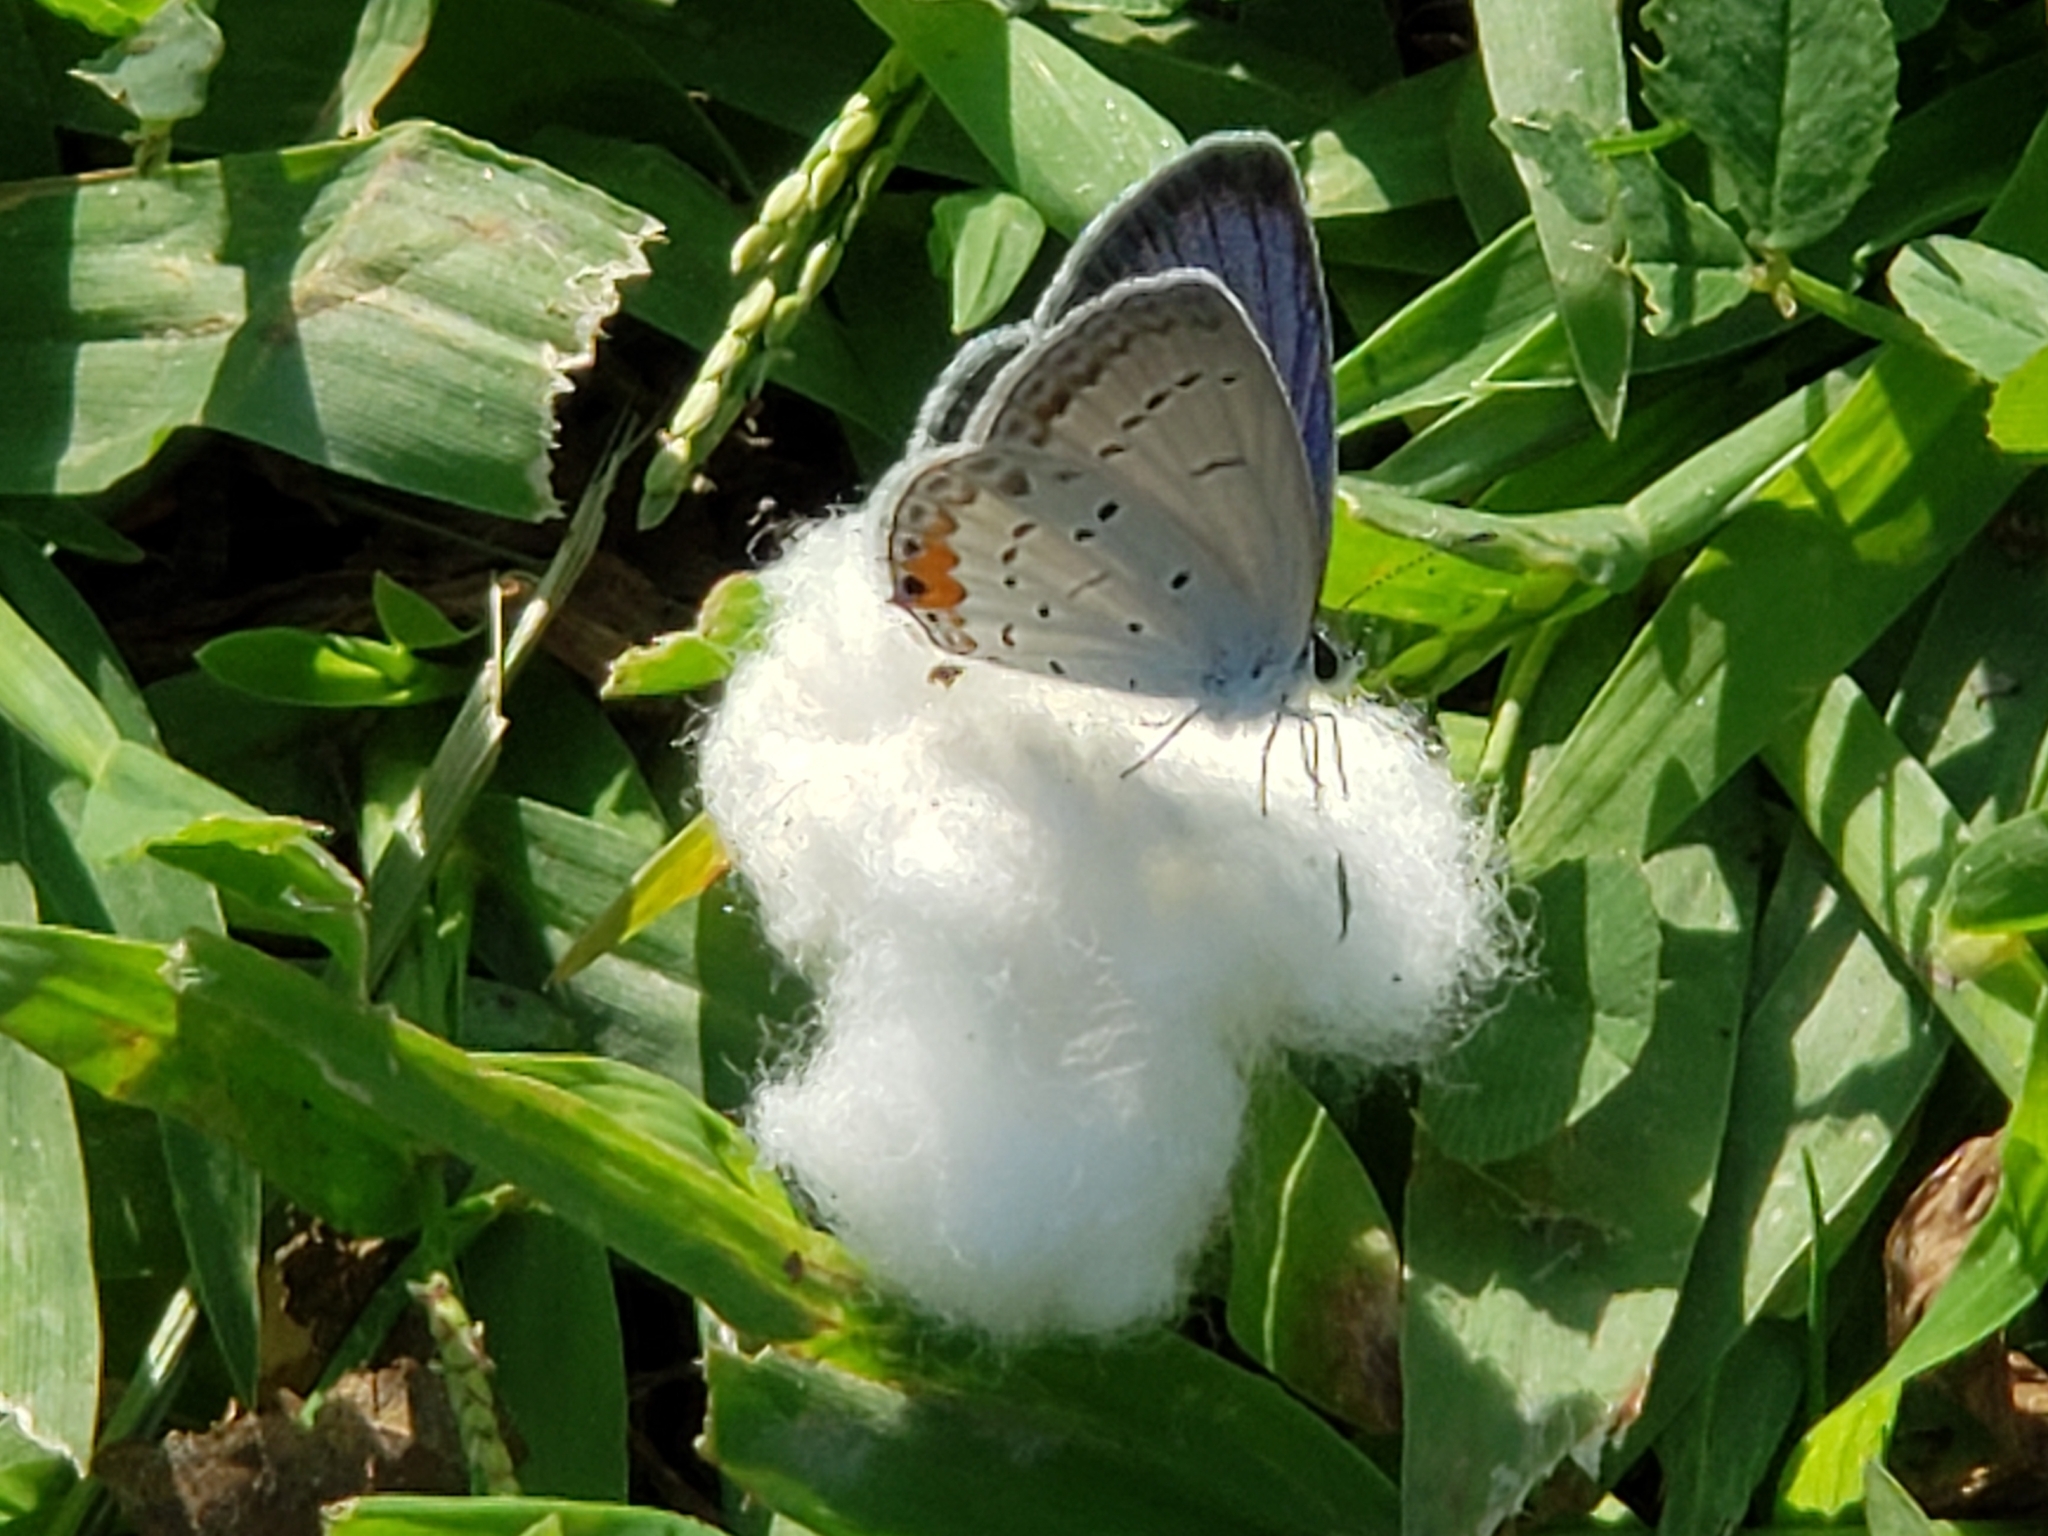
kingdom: Animalia
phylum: Arthropoda
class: Insecta
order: Lepidoptera
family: Lycaenidae
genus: Elkalyce
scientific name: Elkalyce comyntas
